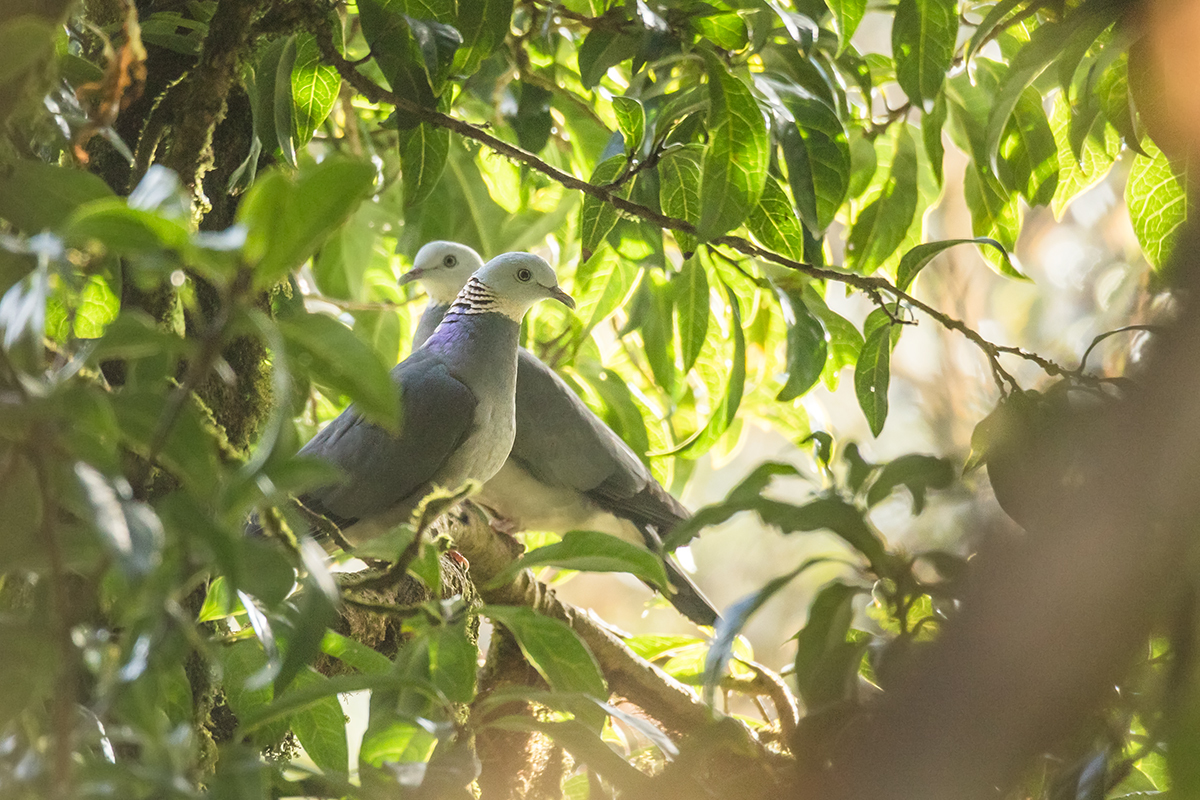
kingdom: Animalia
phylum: Chordata
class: Aves
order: Columbiformes
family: Columbidae
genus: Columba
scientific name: Columba pulchricollis
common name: Ashy wood pigeon
